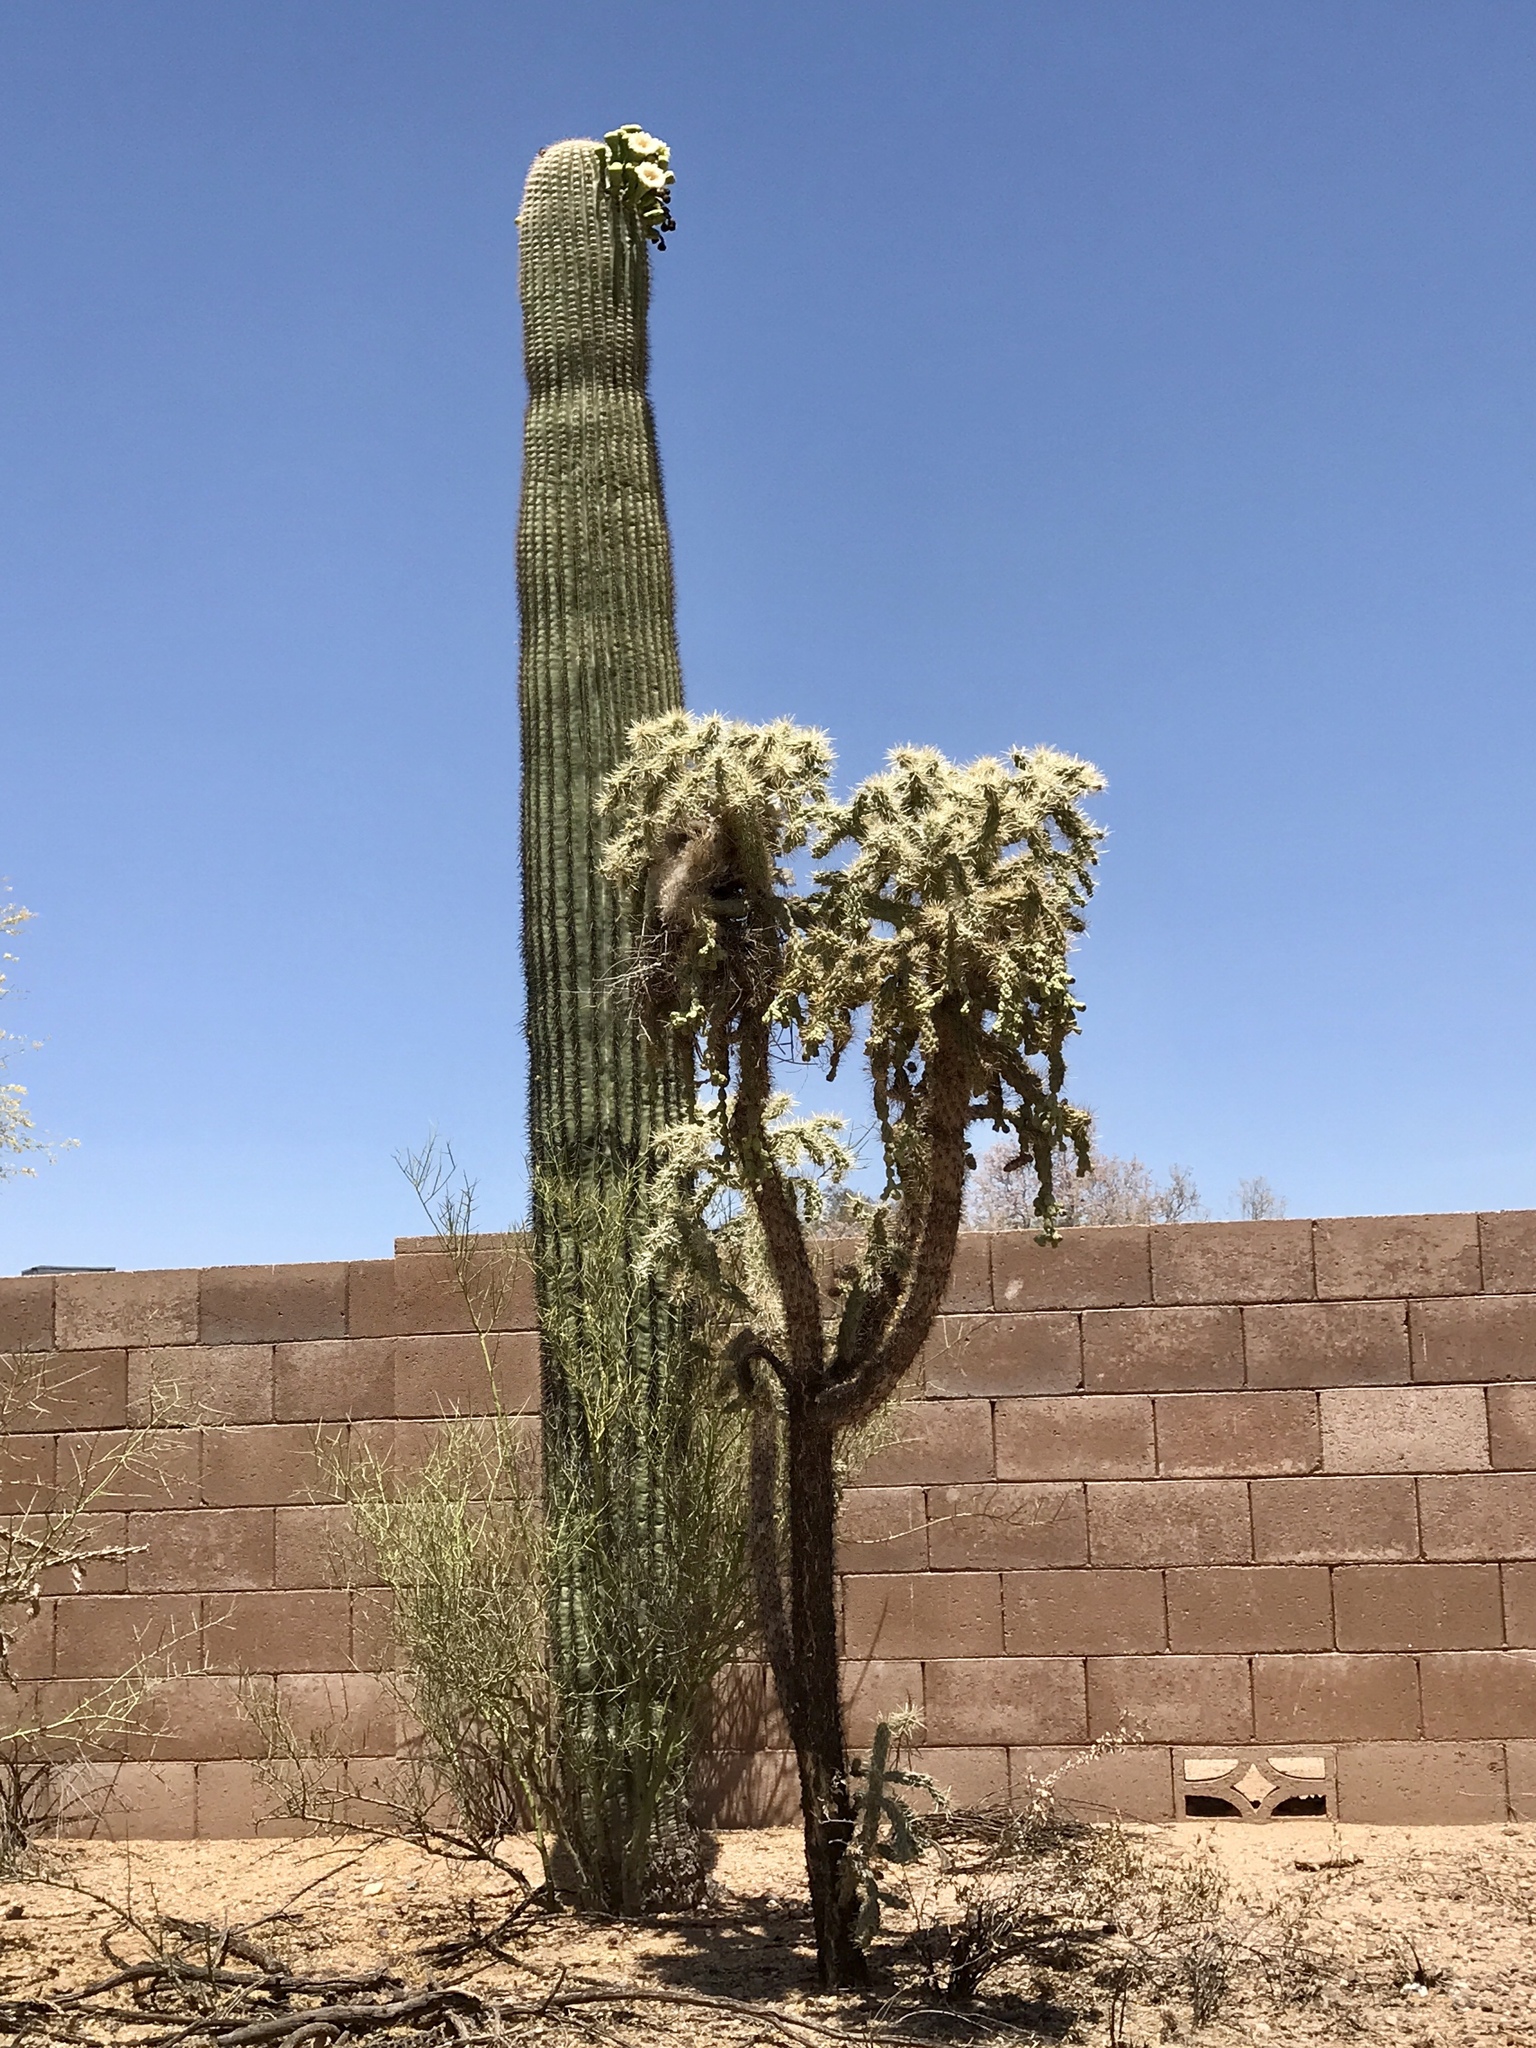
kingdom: Plantae
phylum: Tracheophyta
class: Magnoliopsida
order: Caryophyllales
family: Cactaceae
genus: Cylindropuntia
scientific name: Cylindropuntia fulgida
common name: Jumping cholla
